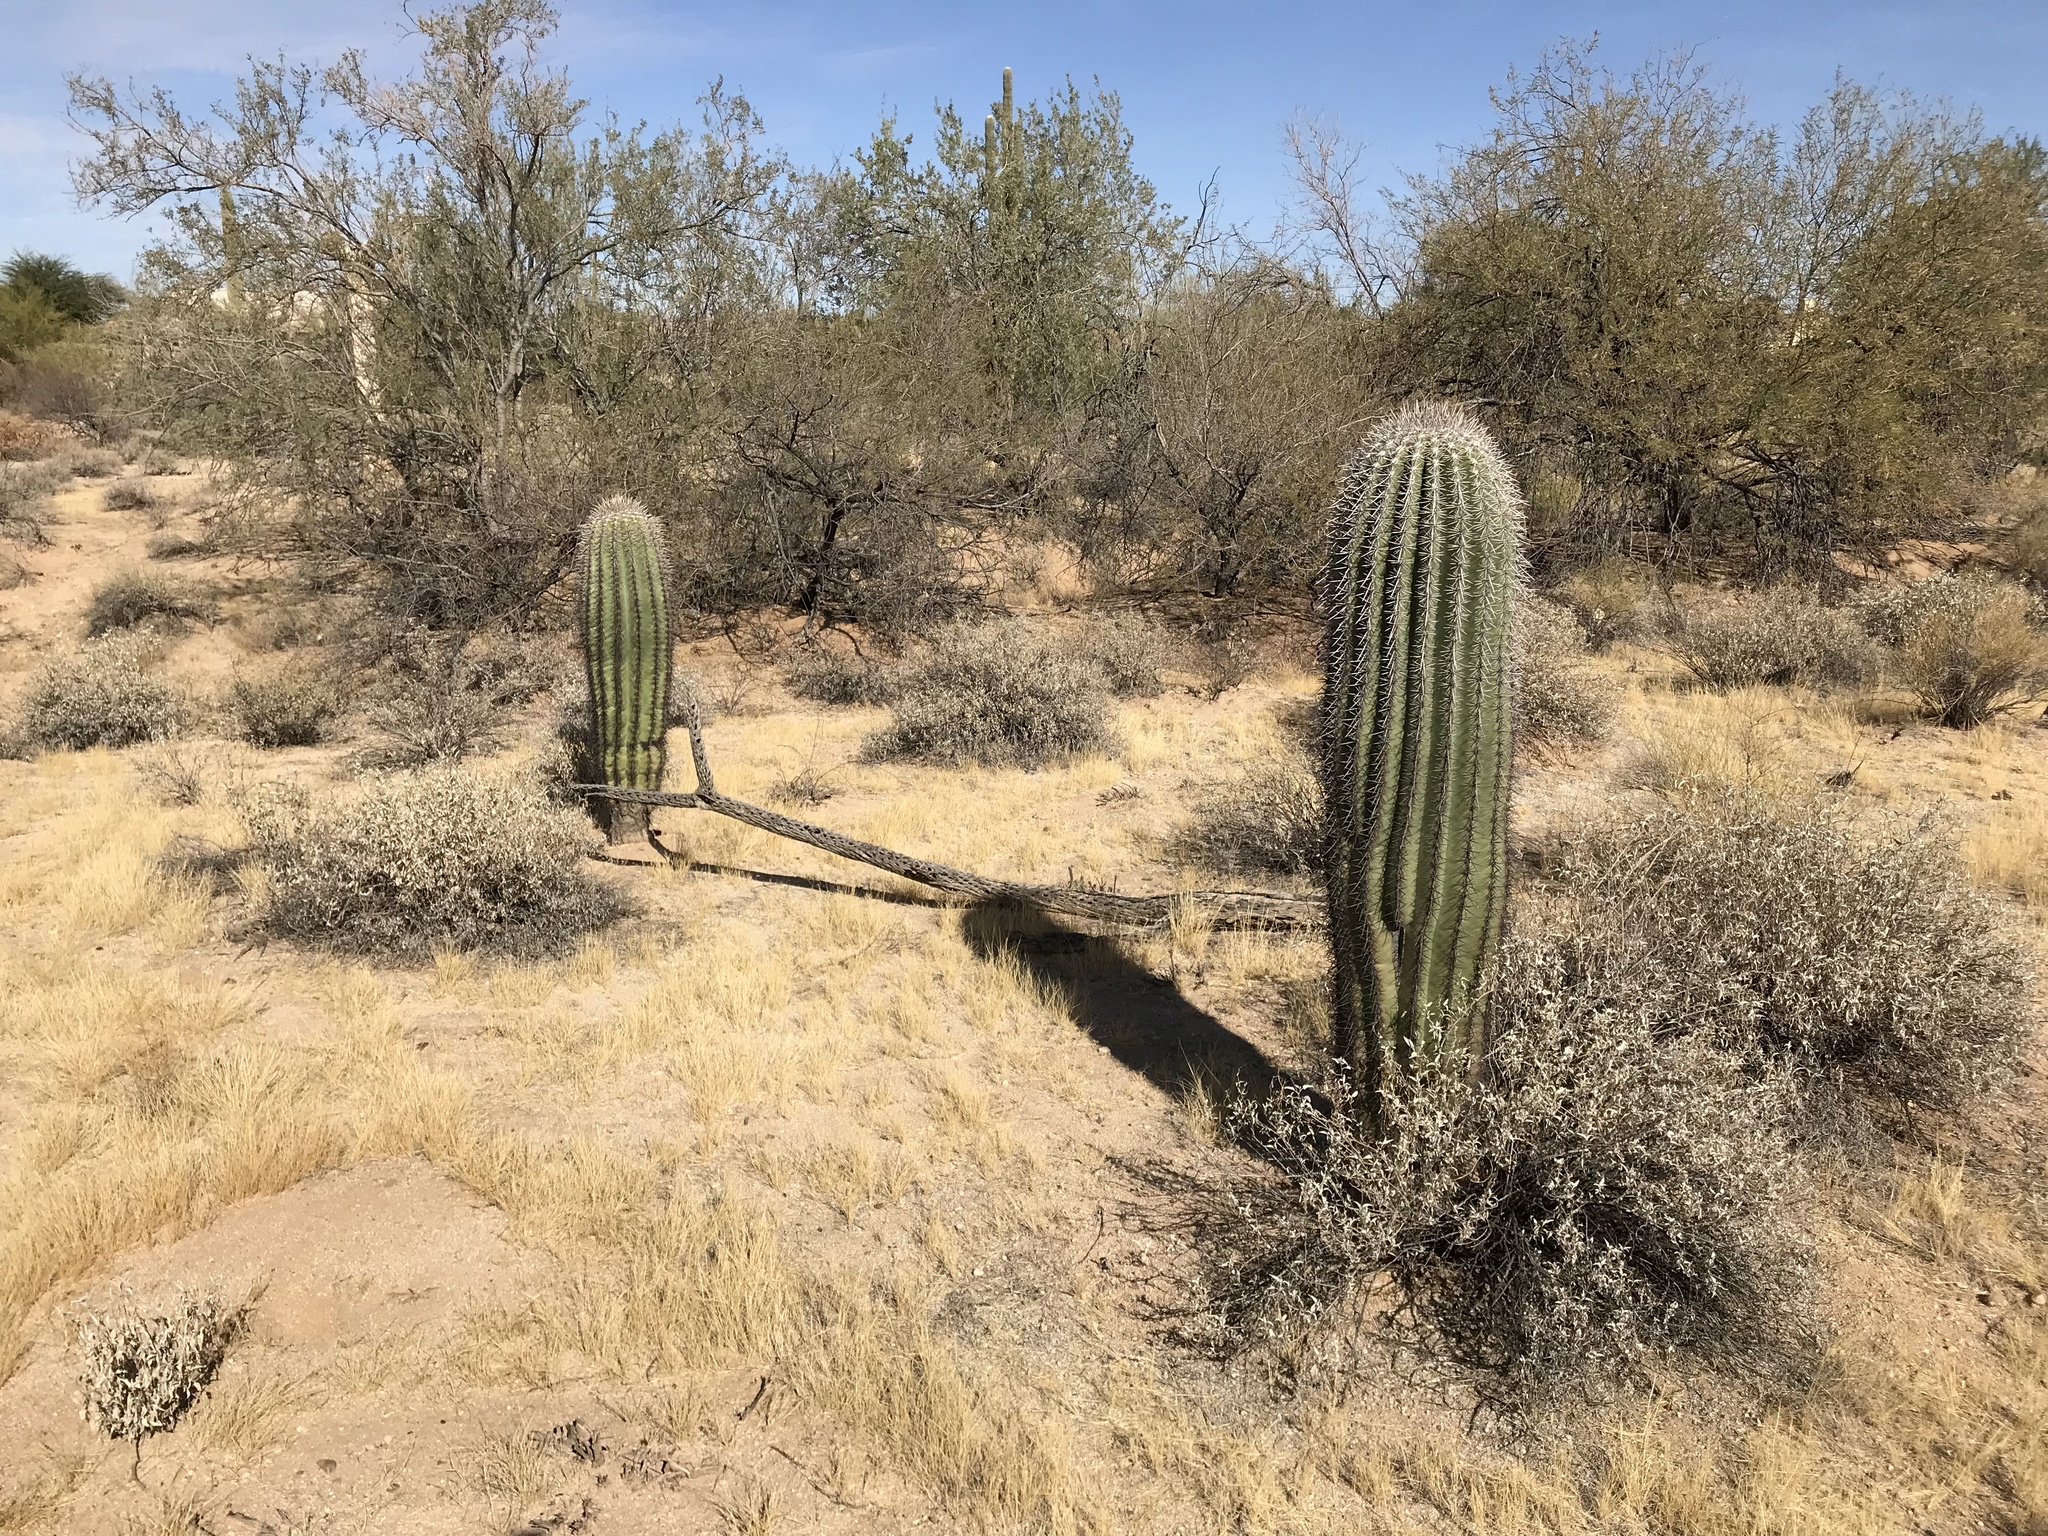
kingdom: Plantae
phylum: Tracheophyta
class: Magnoliopsida
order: Caryophyllales
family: Cactaceae
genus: Carnegiea
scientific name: Carnegiea gigantea
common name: Saguaro
